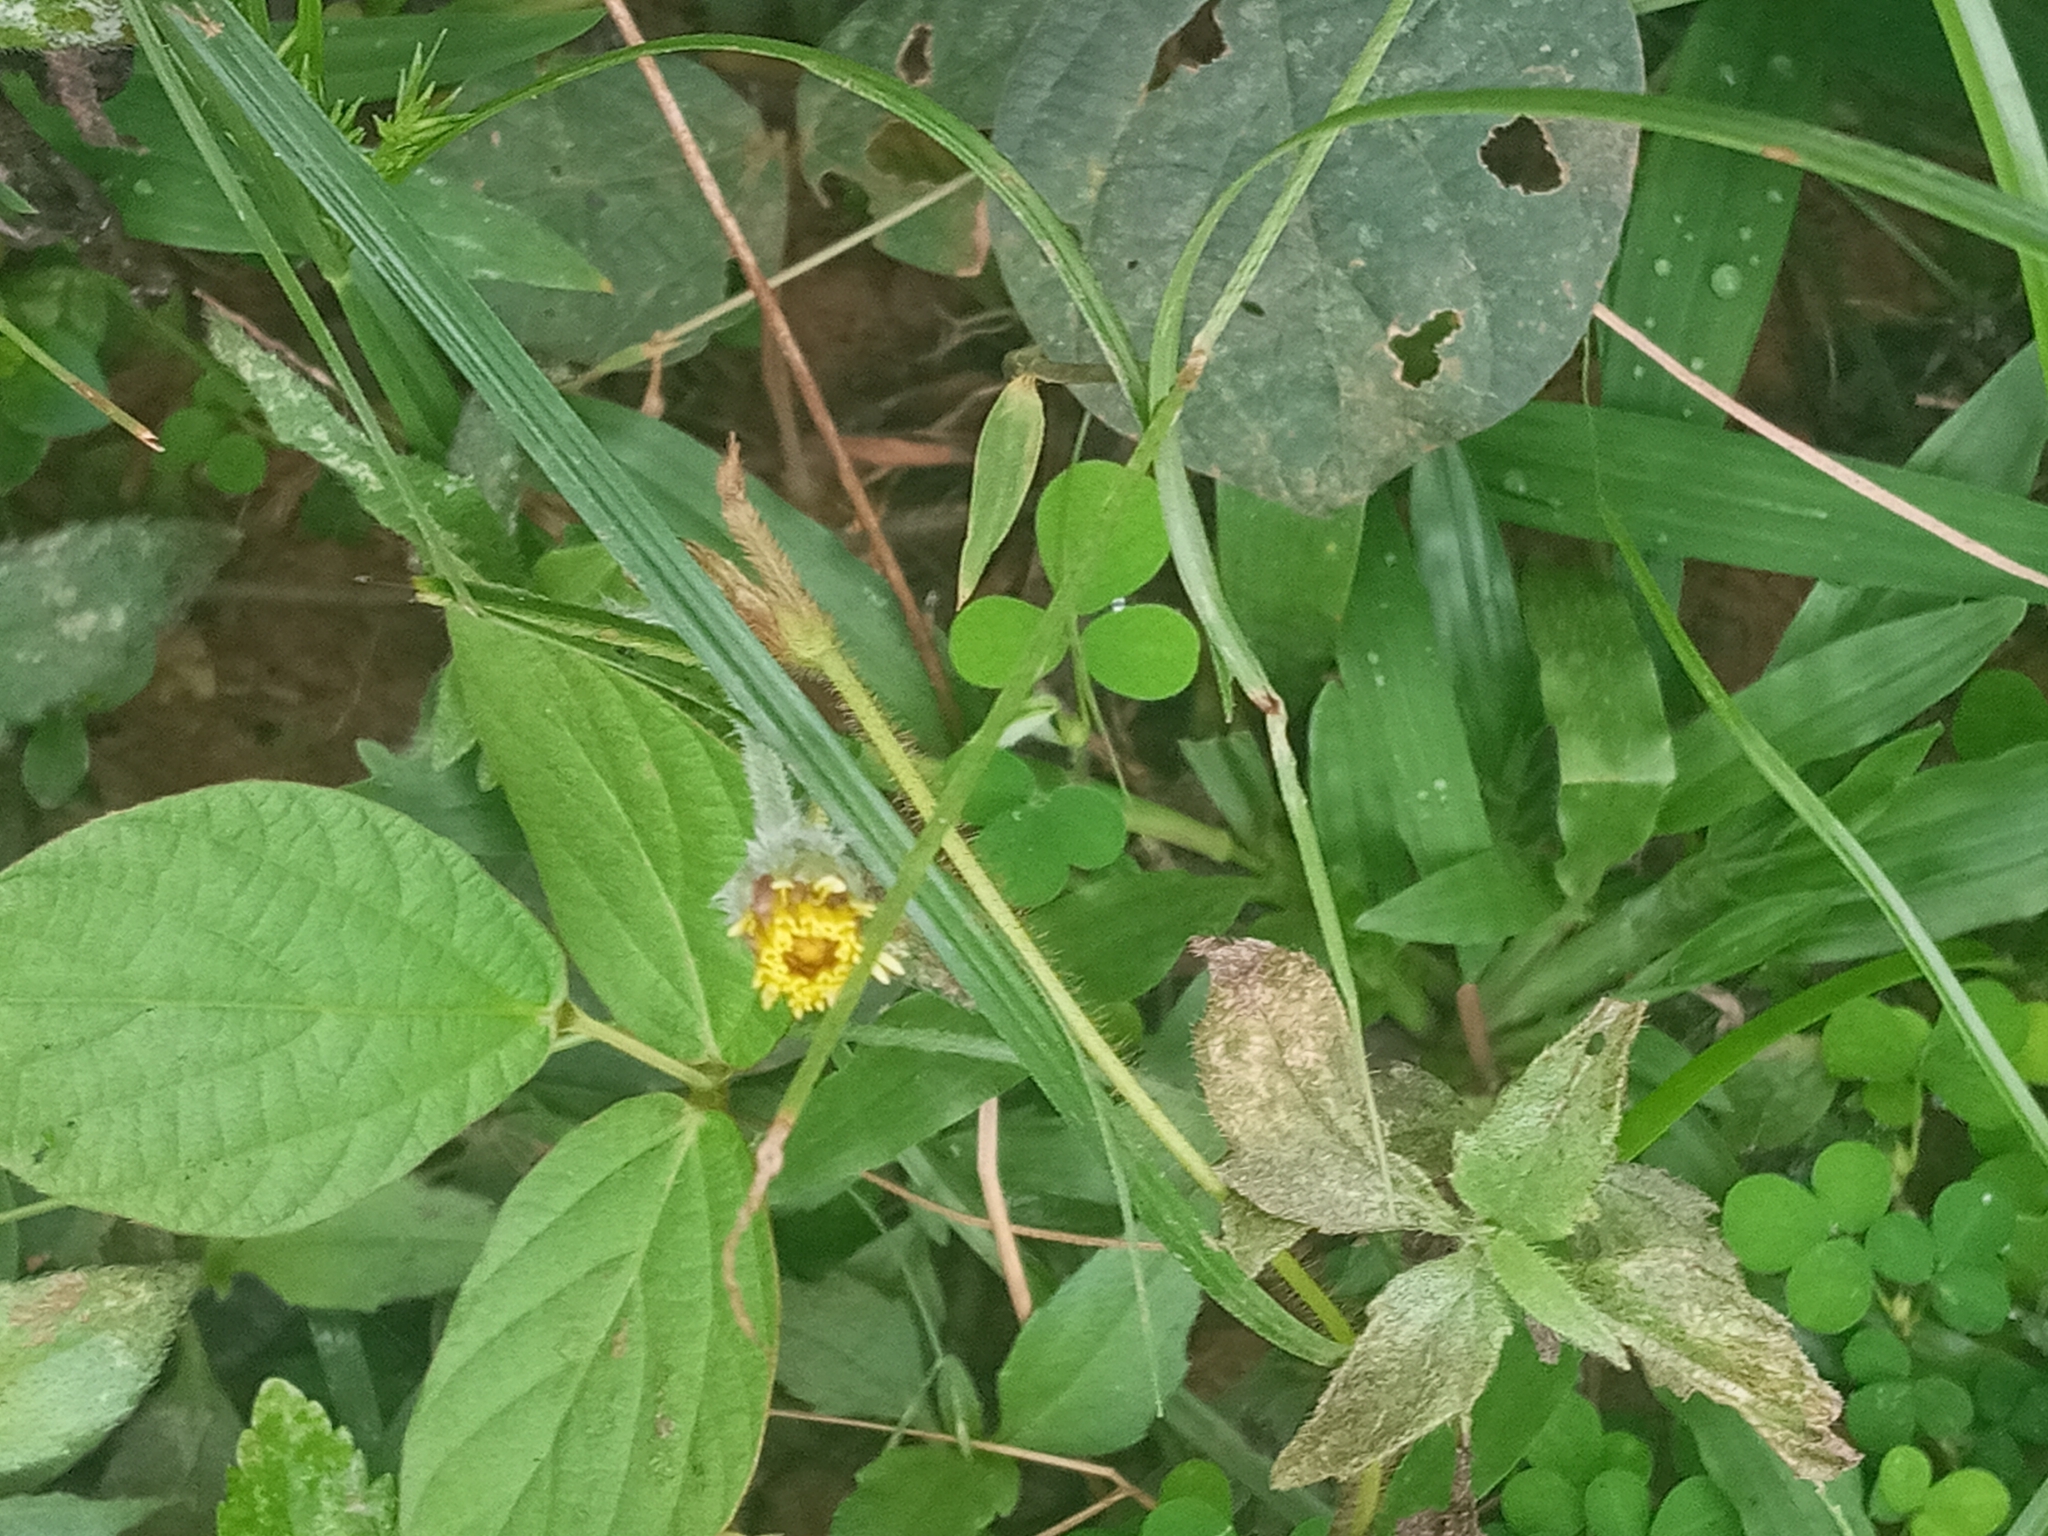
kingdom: Plantae
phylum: Tracheophyta
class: Magnoliopsida
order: Asterales
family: Asteraceae
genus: Tridax
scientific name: Tridax procumbens
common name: Coatbuttons
